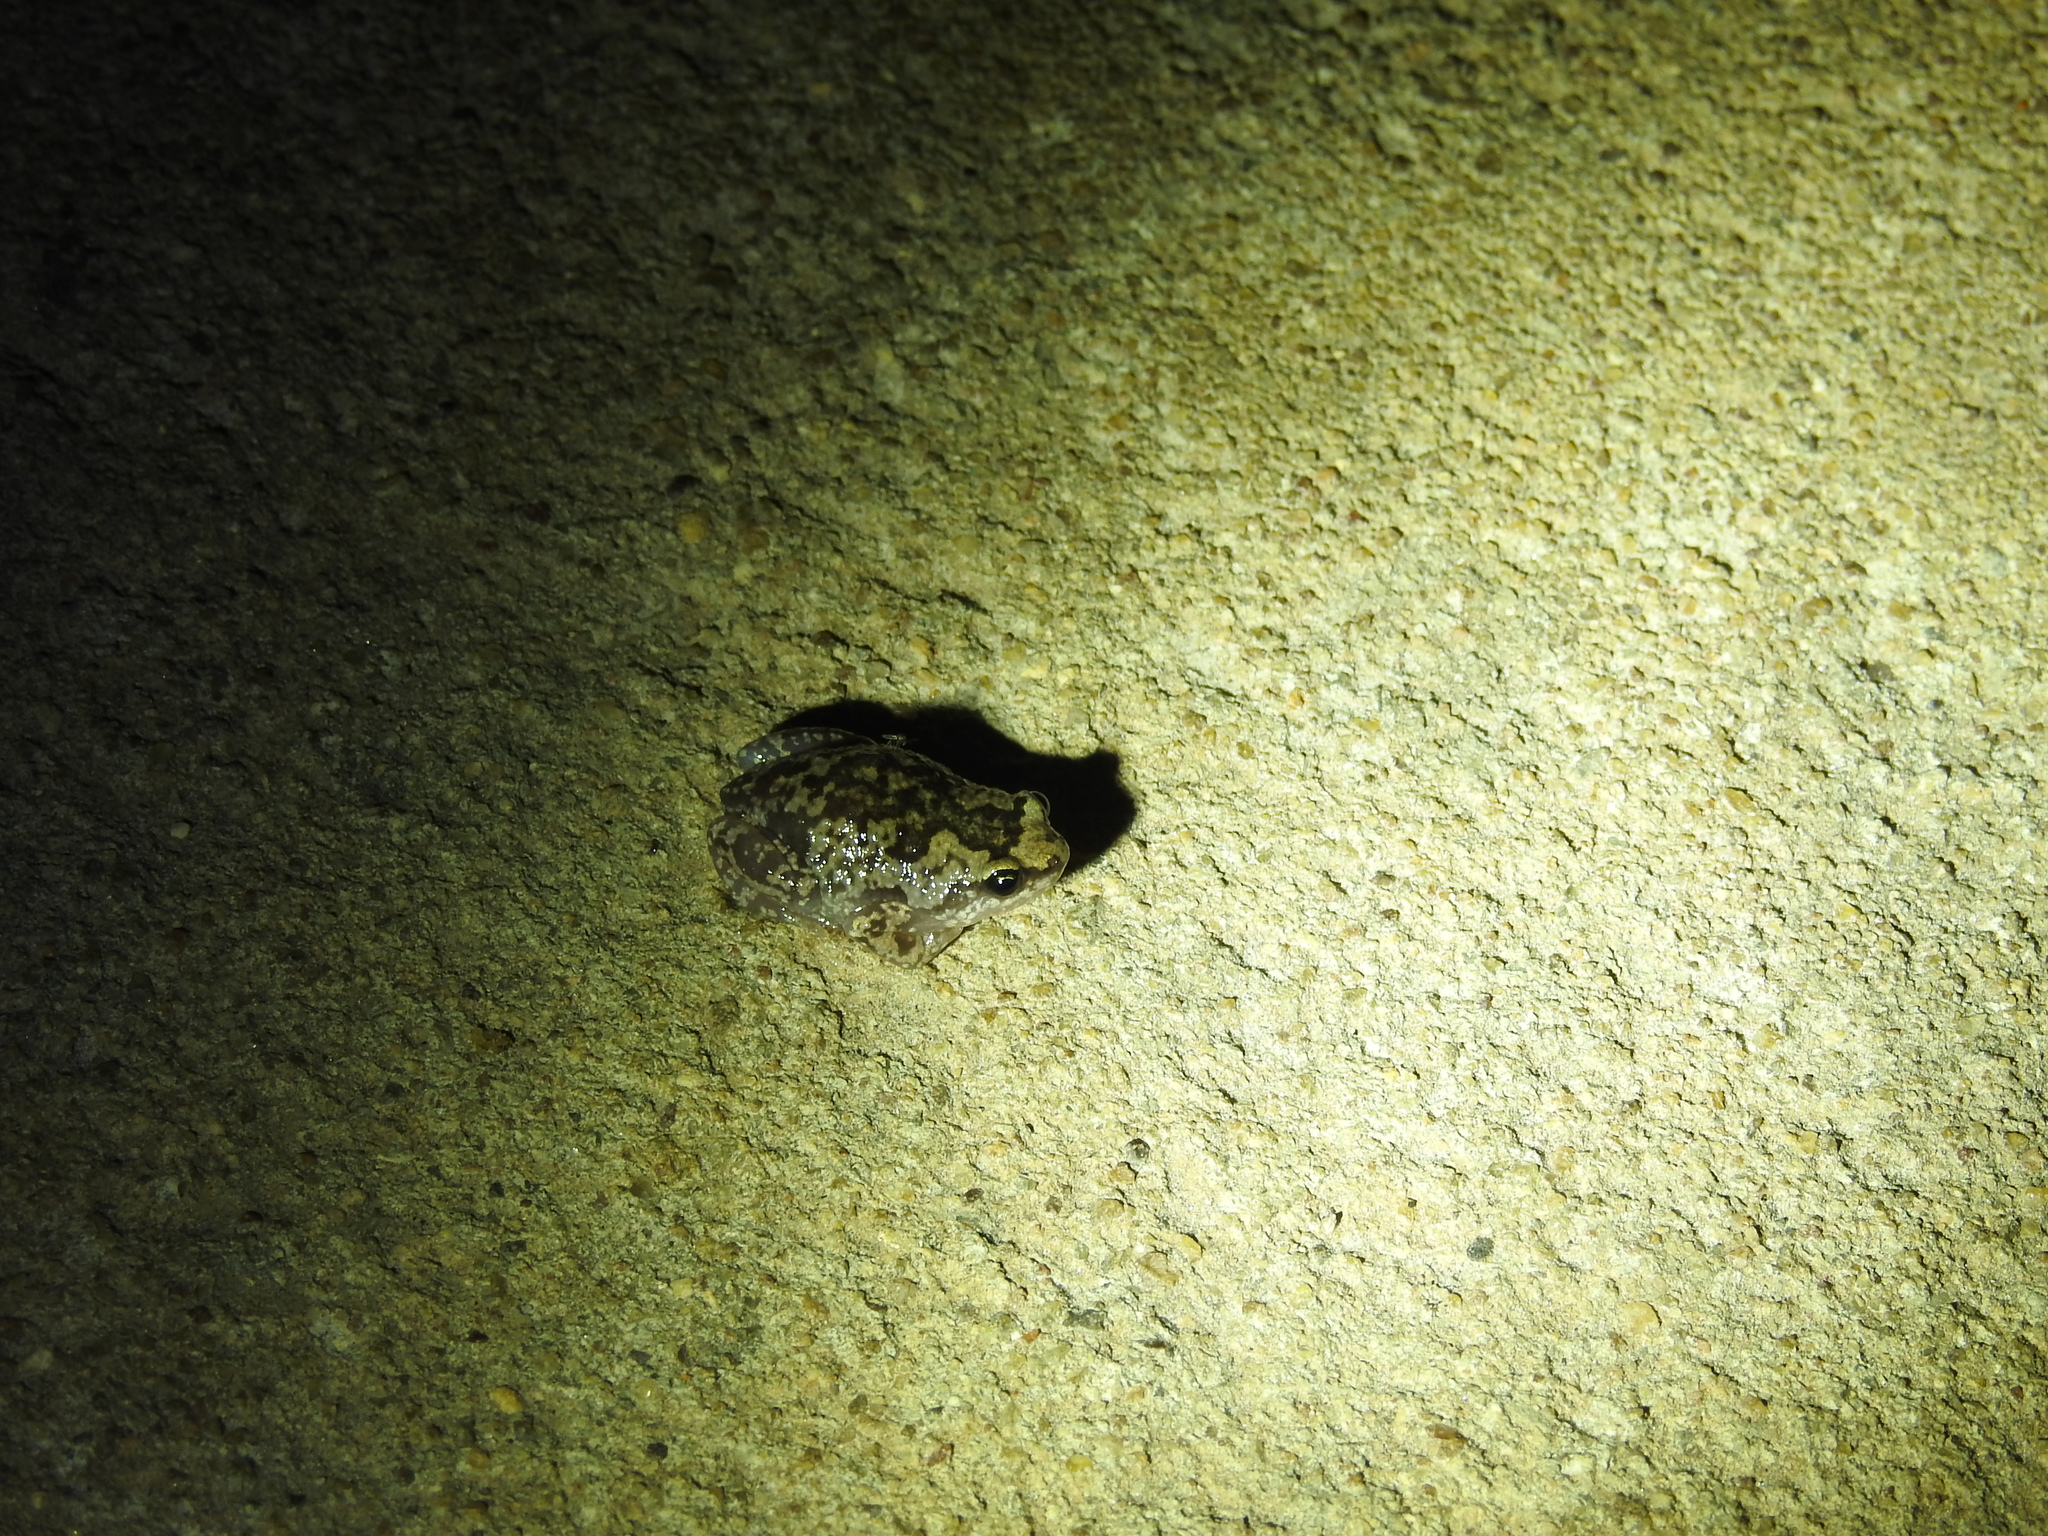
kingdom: Animalia
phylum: Chordata
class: Amphibia
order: Anura
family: Microhylidae
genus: Uperodon
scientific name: Uperodon variegatus
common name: Eluru dot frog
